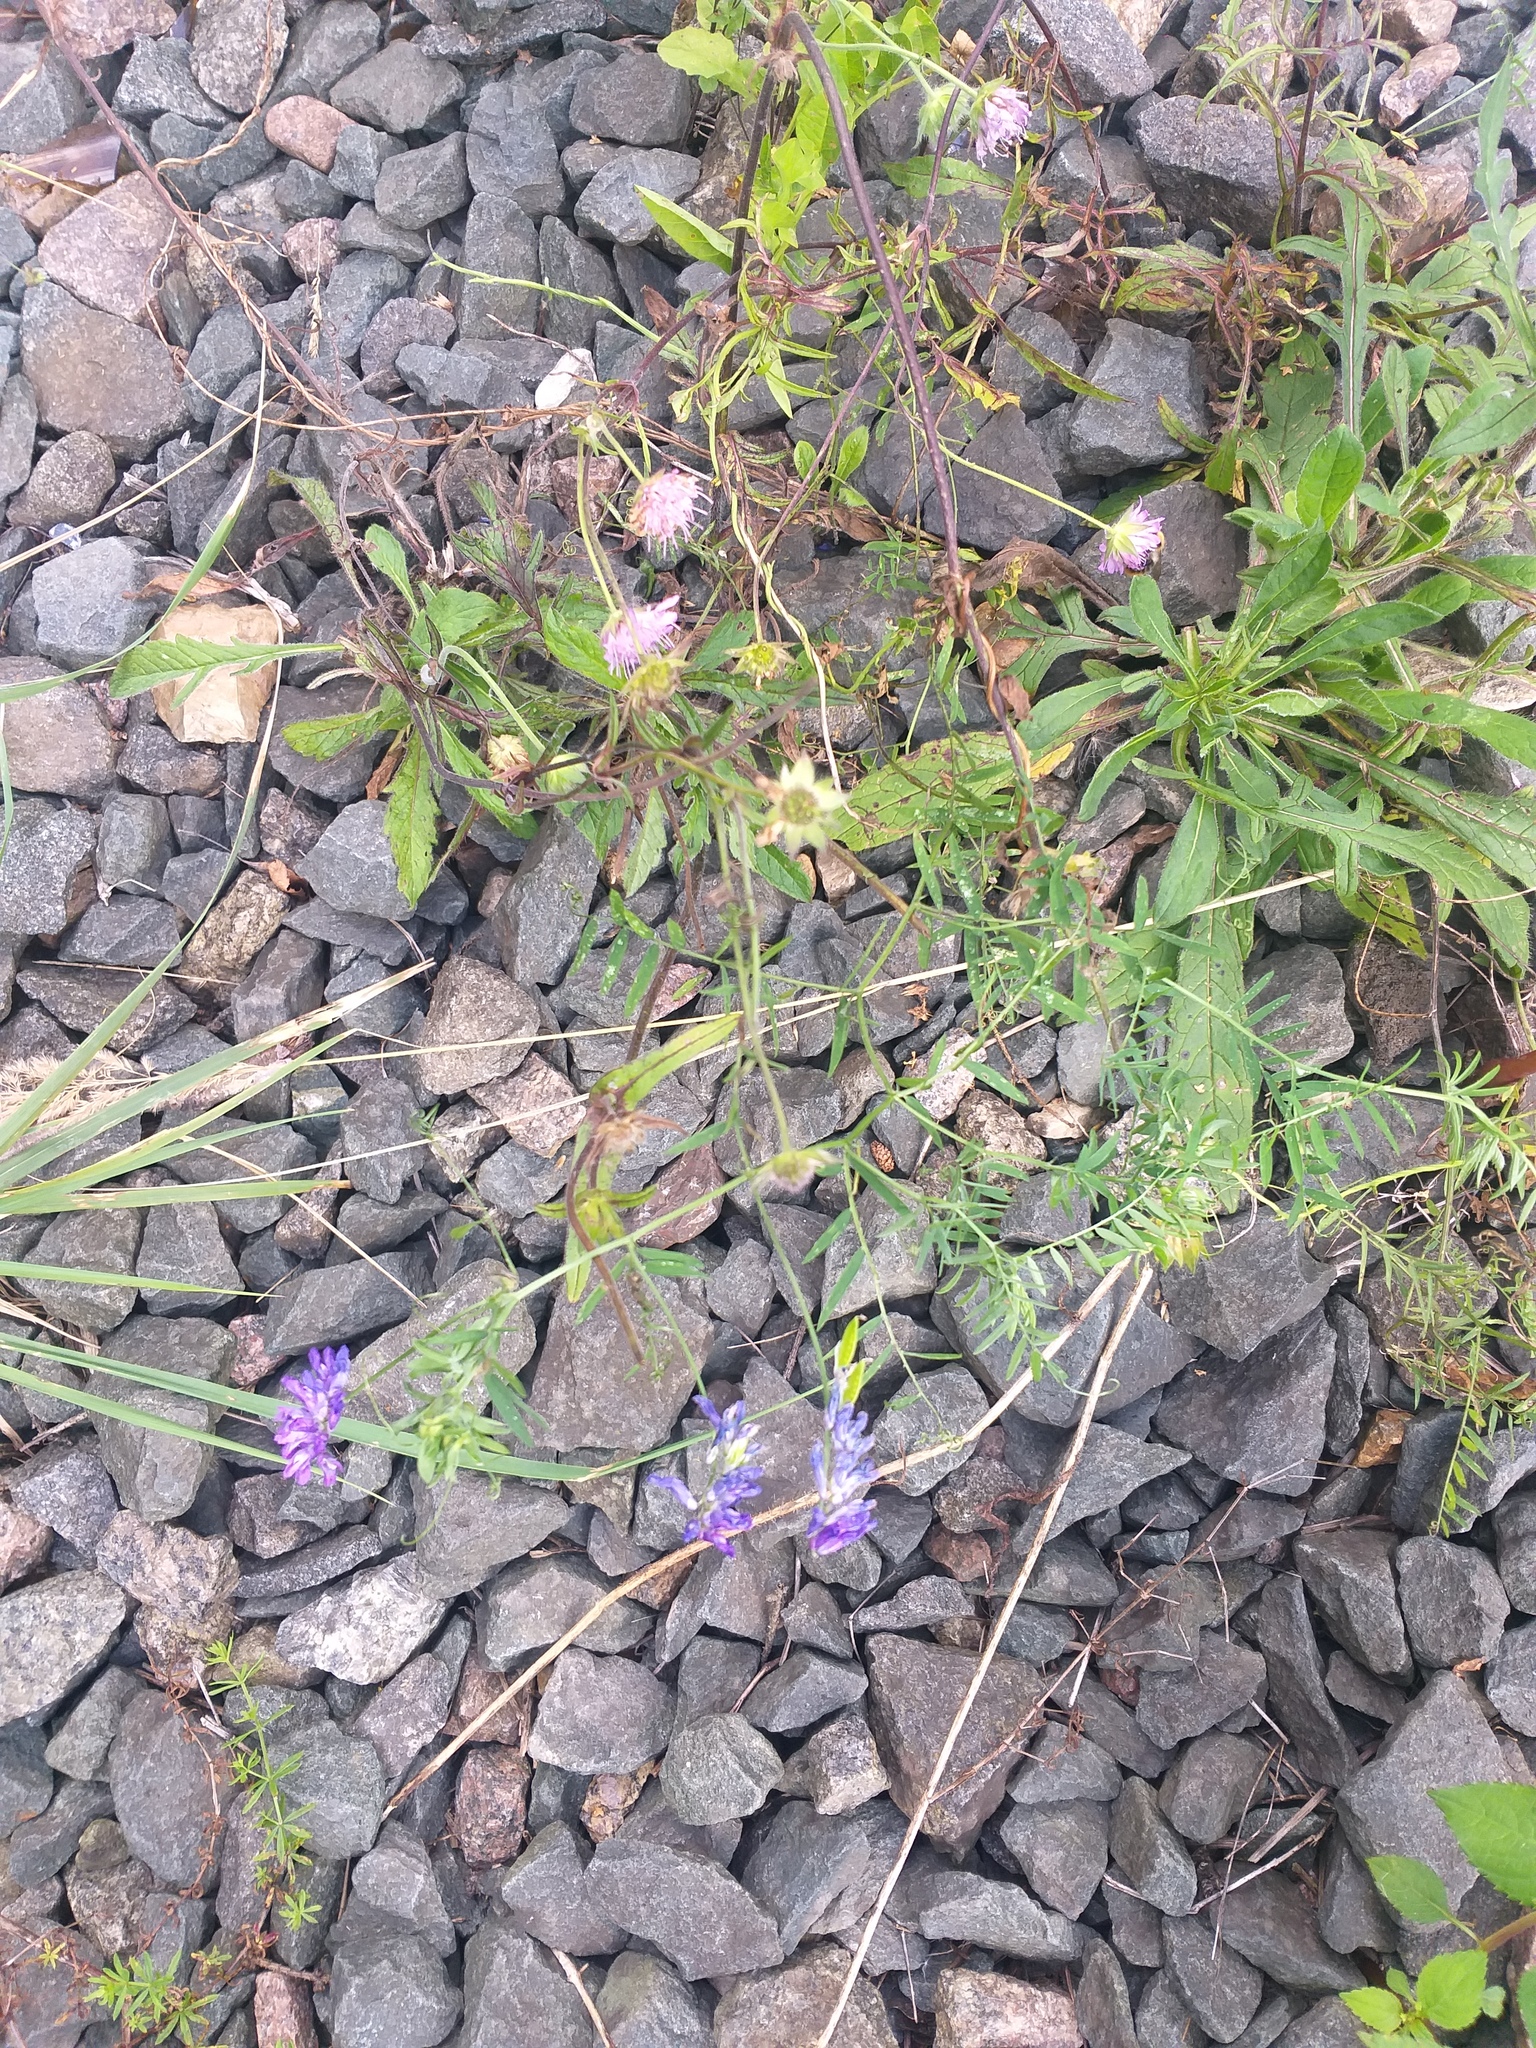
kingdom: Plantae
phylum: Tracheophyta
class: Magnoliopsida
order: Fabales
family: Fabaceae
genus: Vicia
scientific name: Vicia cracca
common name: Bird vetch
